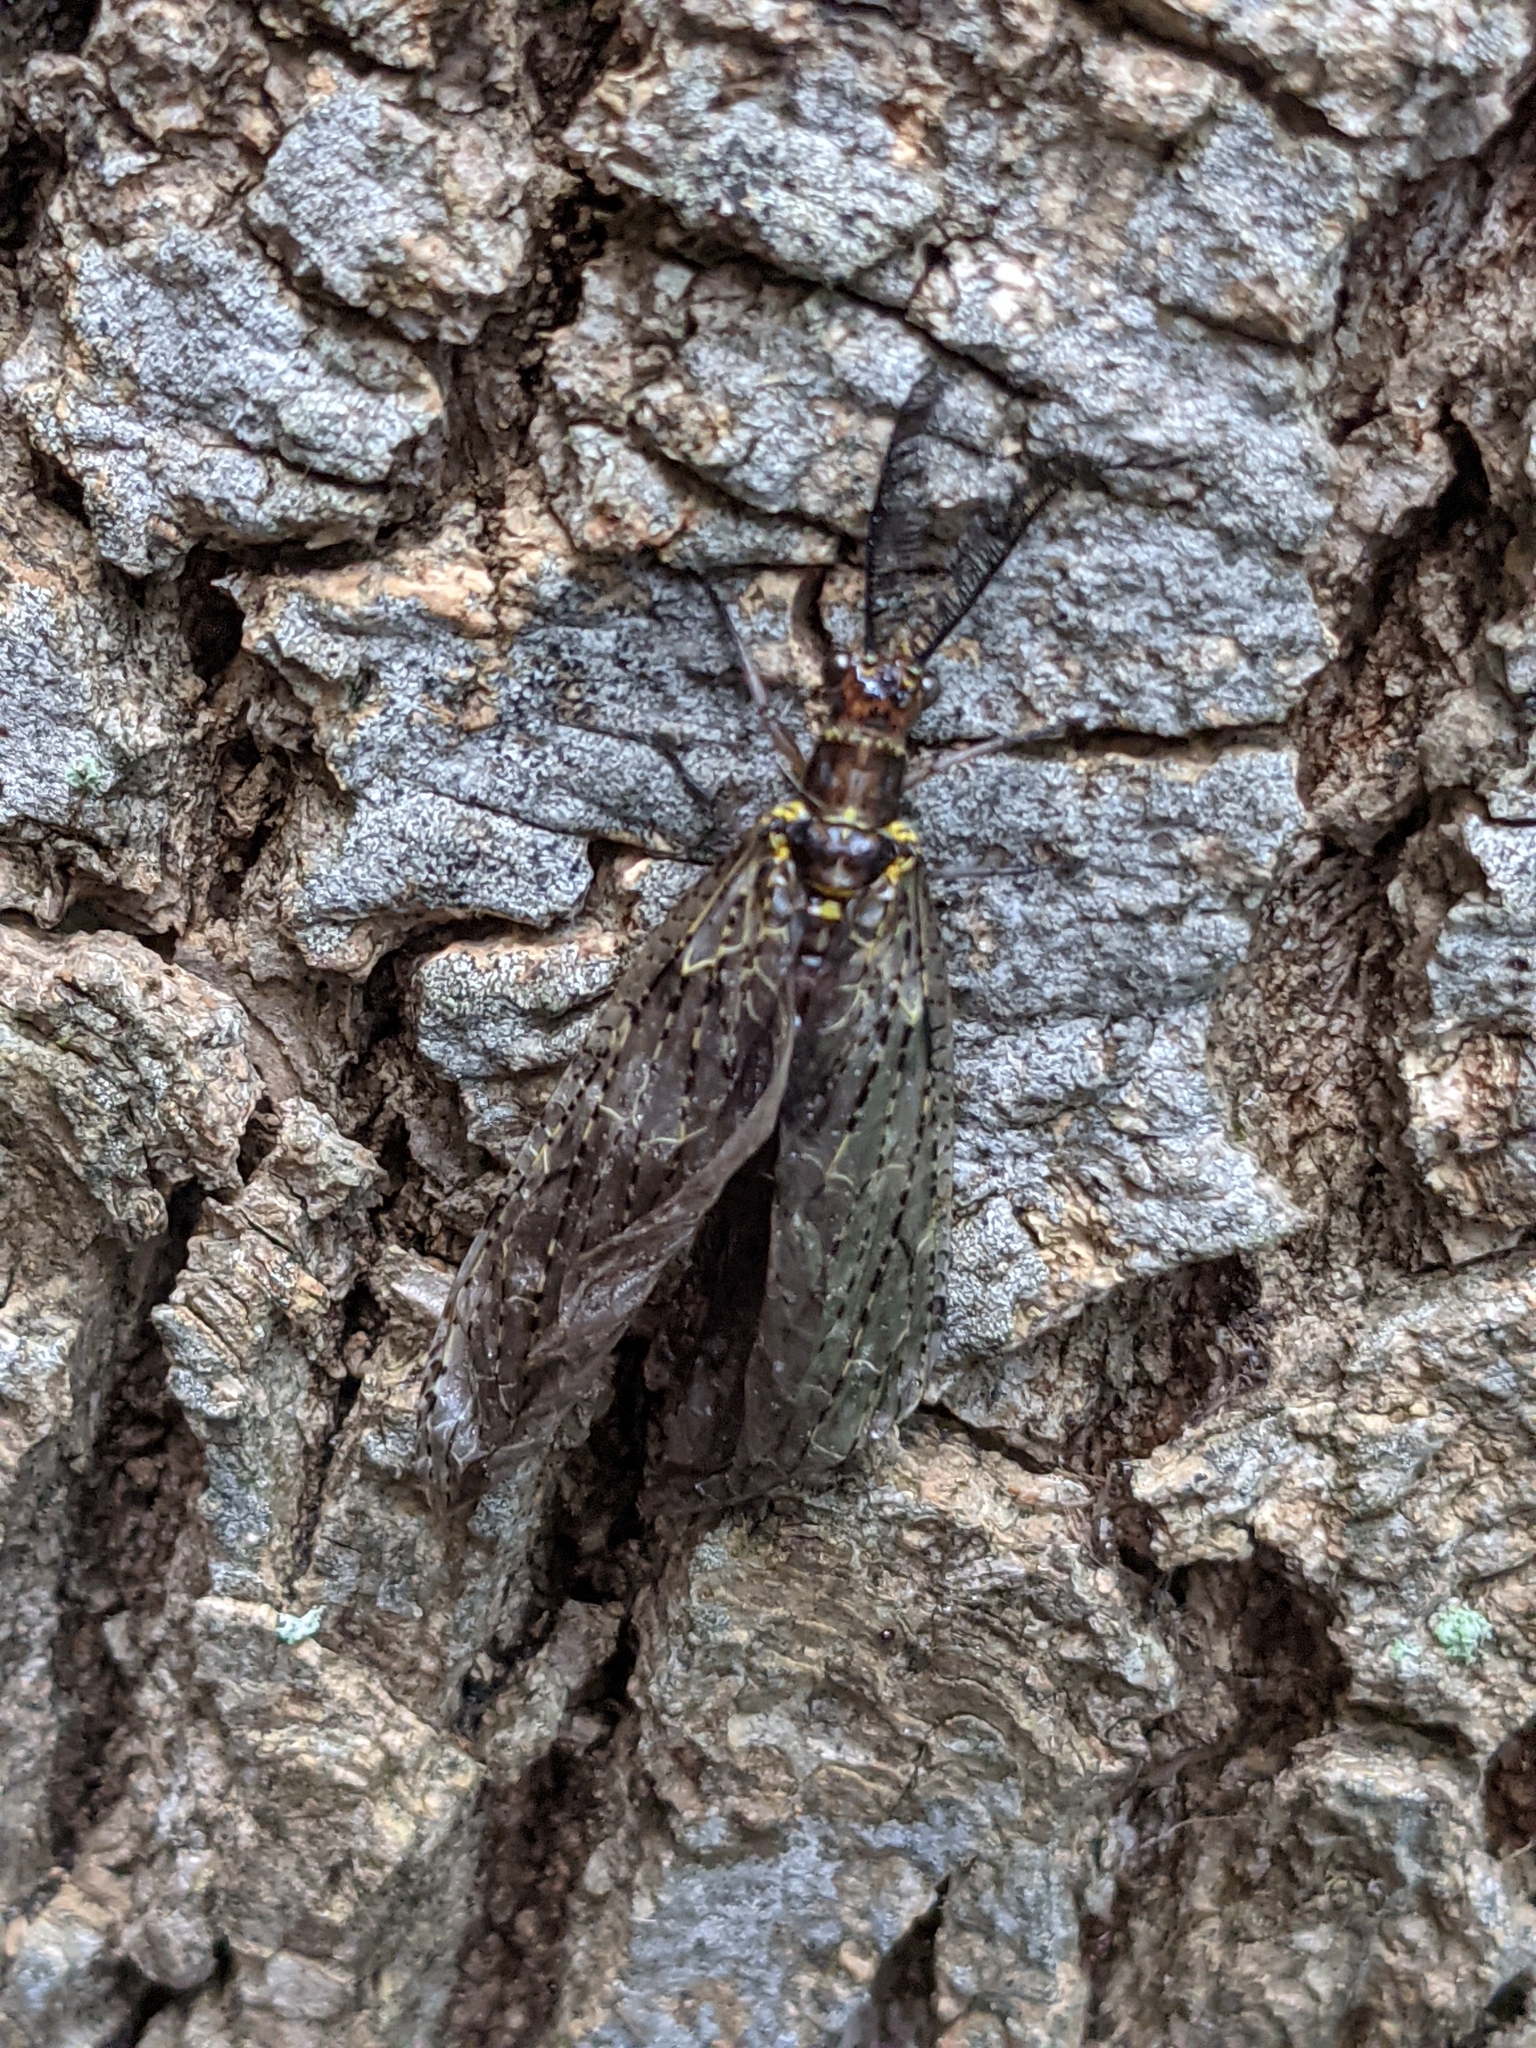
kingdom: Animalia
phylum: Arthropoda
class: Insecta
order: Megaloptera
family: Corydalidae
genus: Chauliodes
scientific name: Chauliodes rastricornis
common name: Spring fishfly
